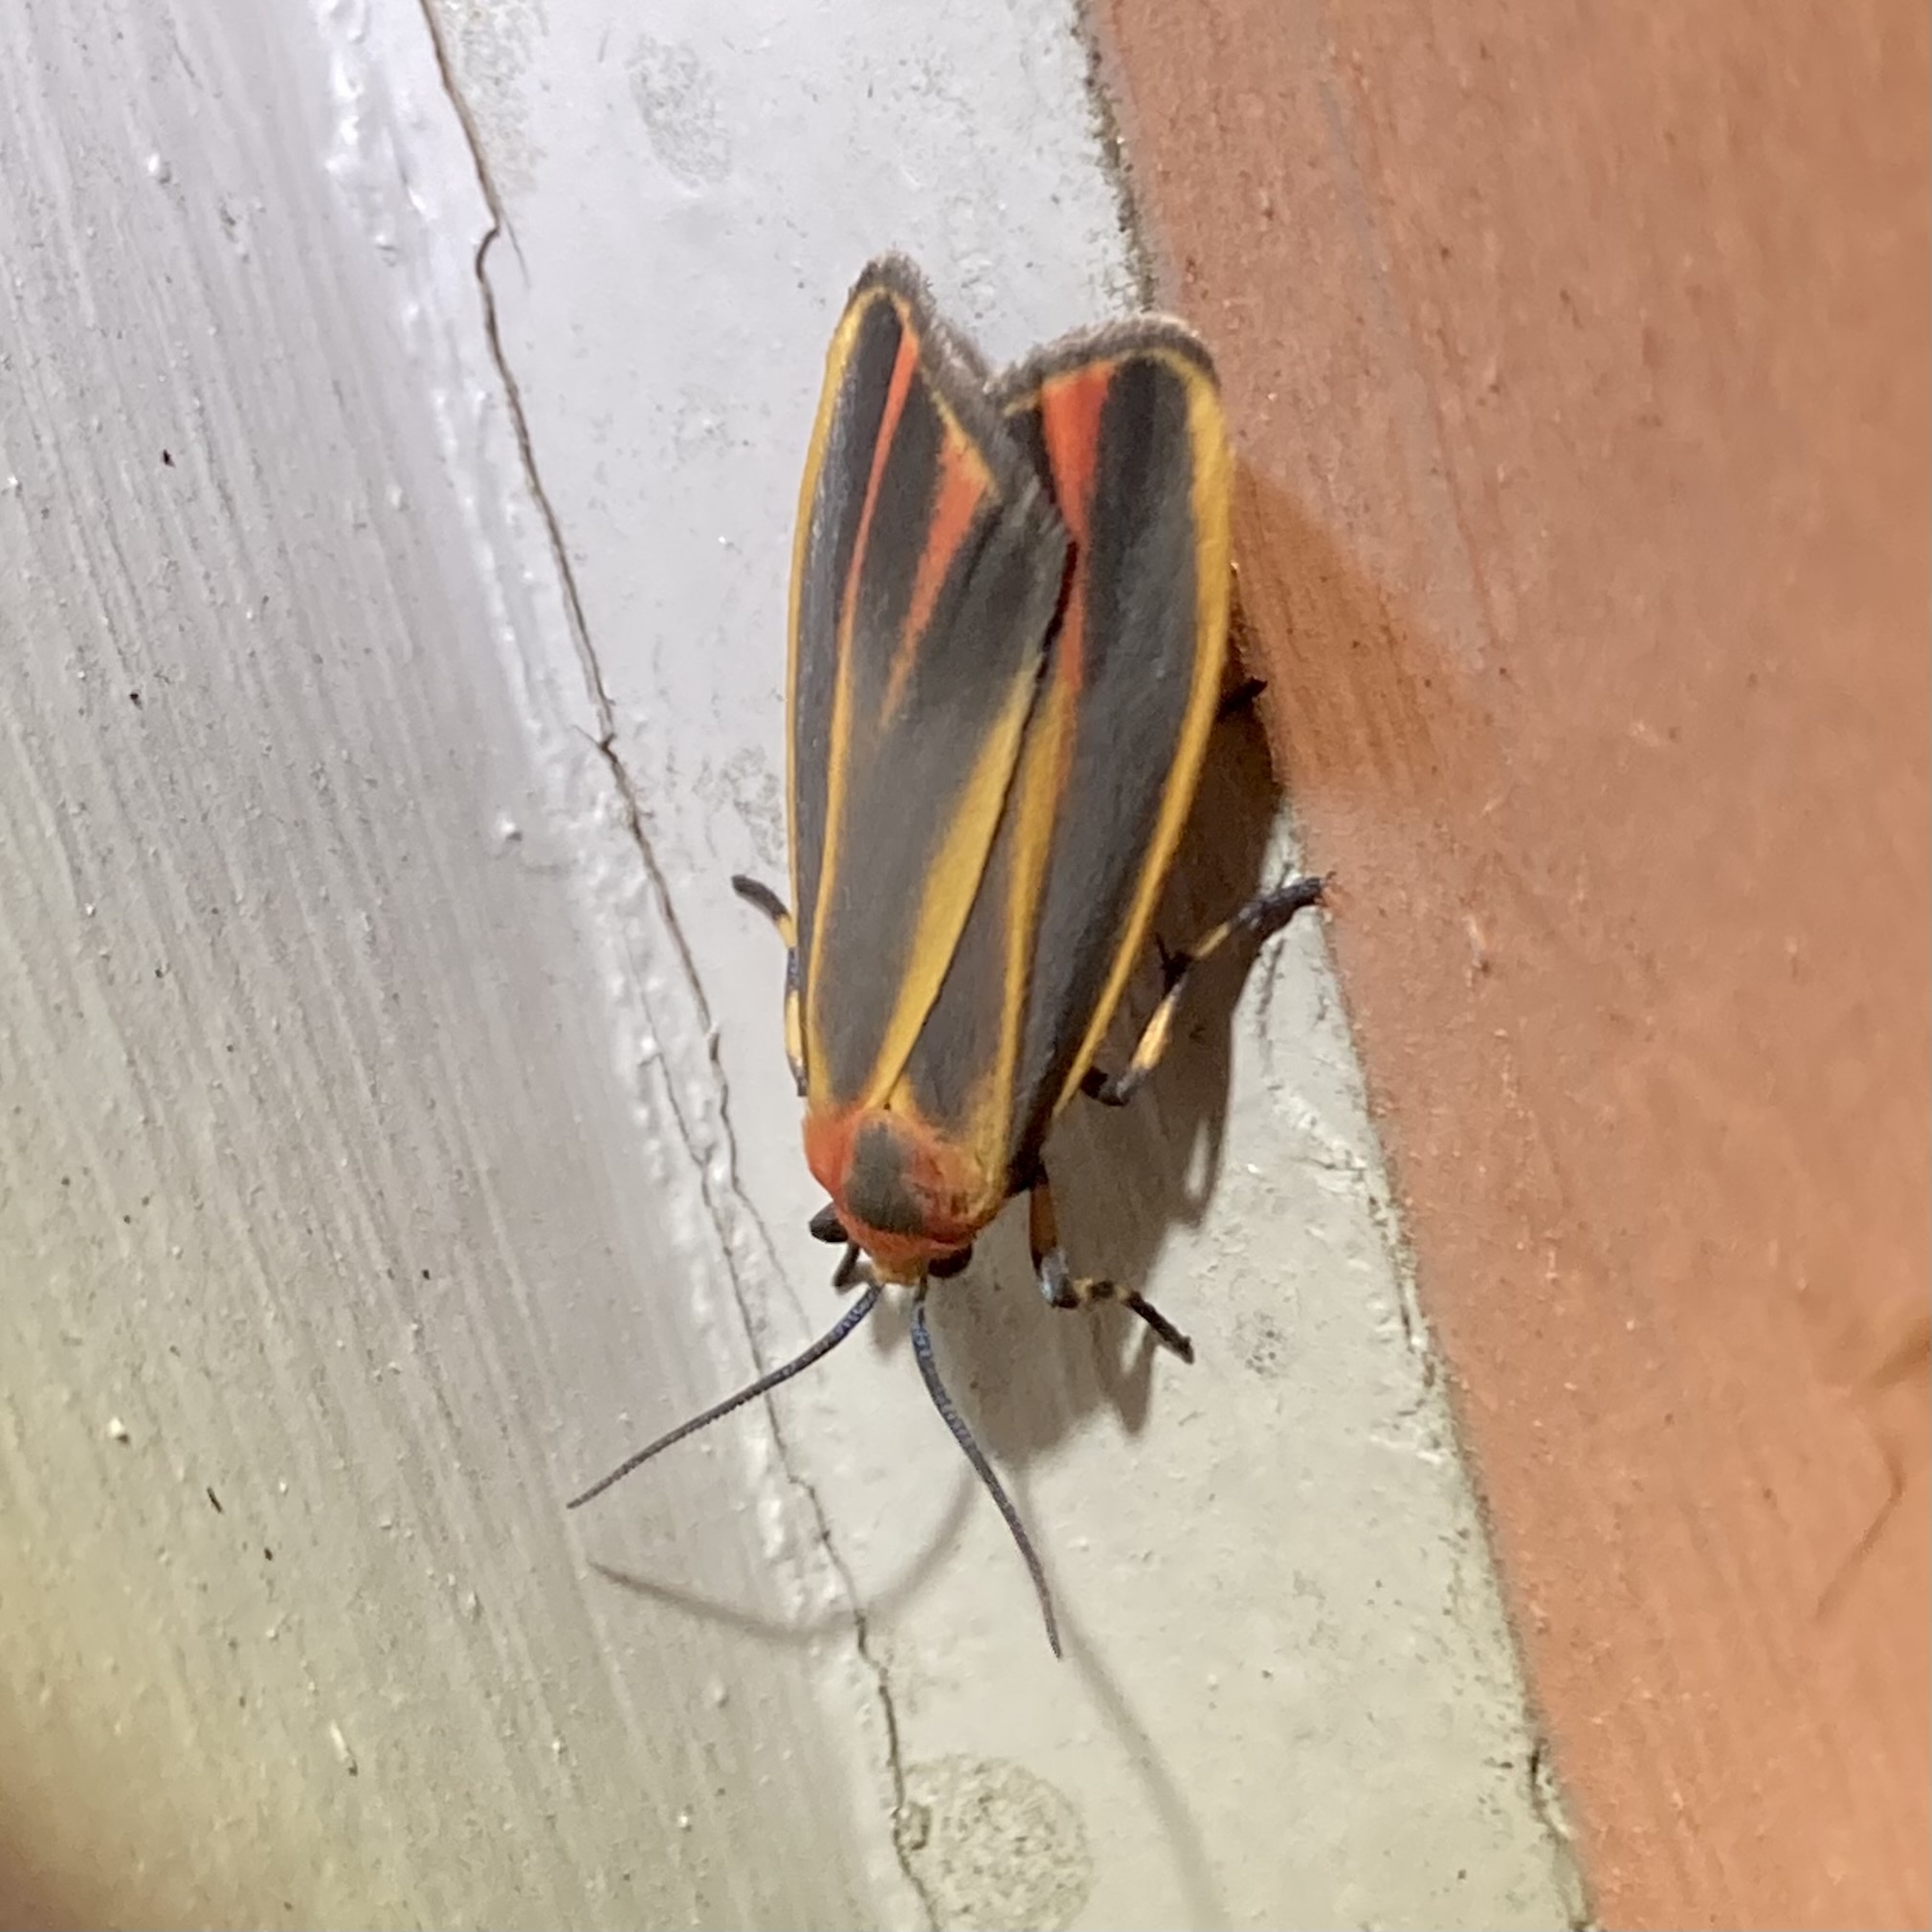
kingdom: Animalia
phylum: Arthropoda
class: Insecta
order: Lepidoptera
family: Erebidae
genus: Hypoprepia
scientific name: Hypoprepia fucosa
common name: Painted lichen moth
